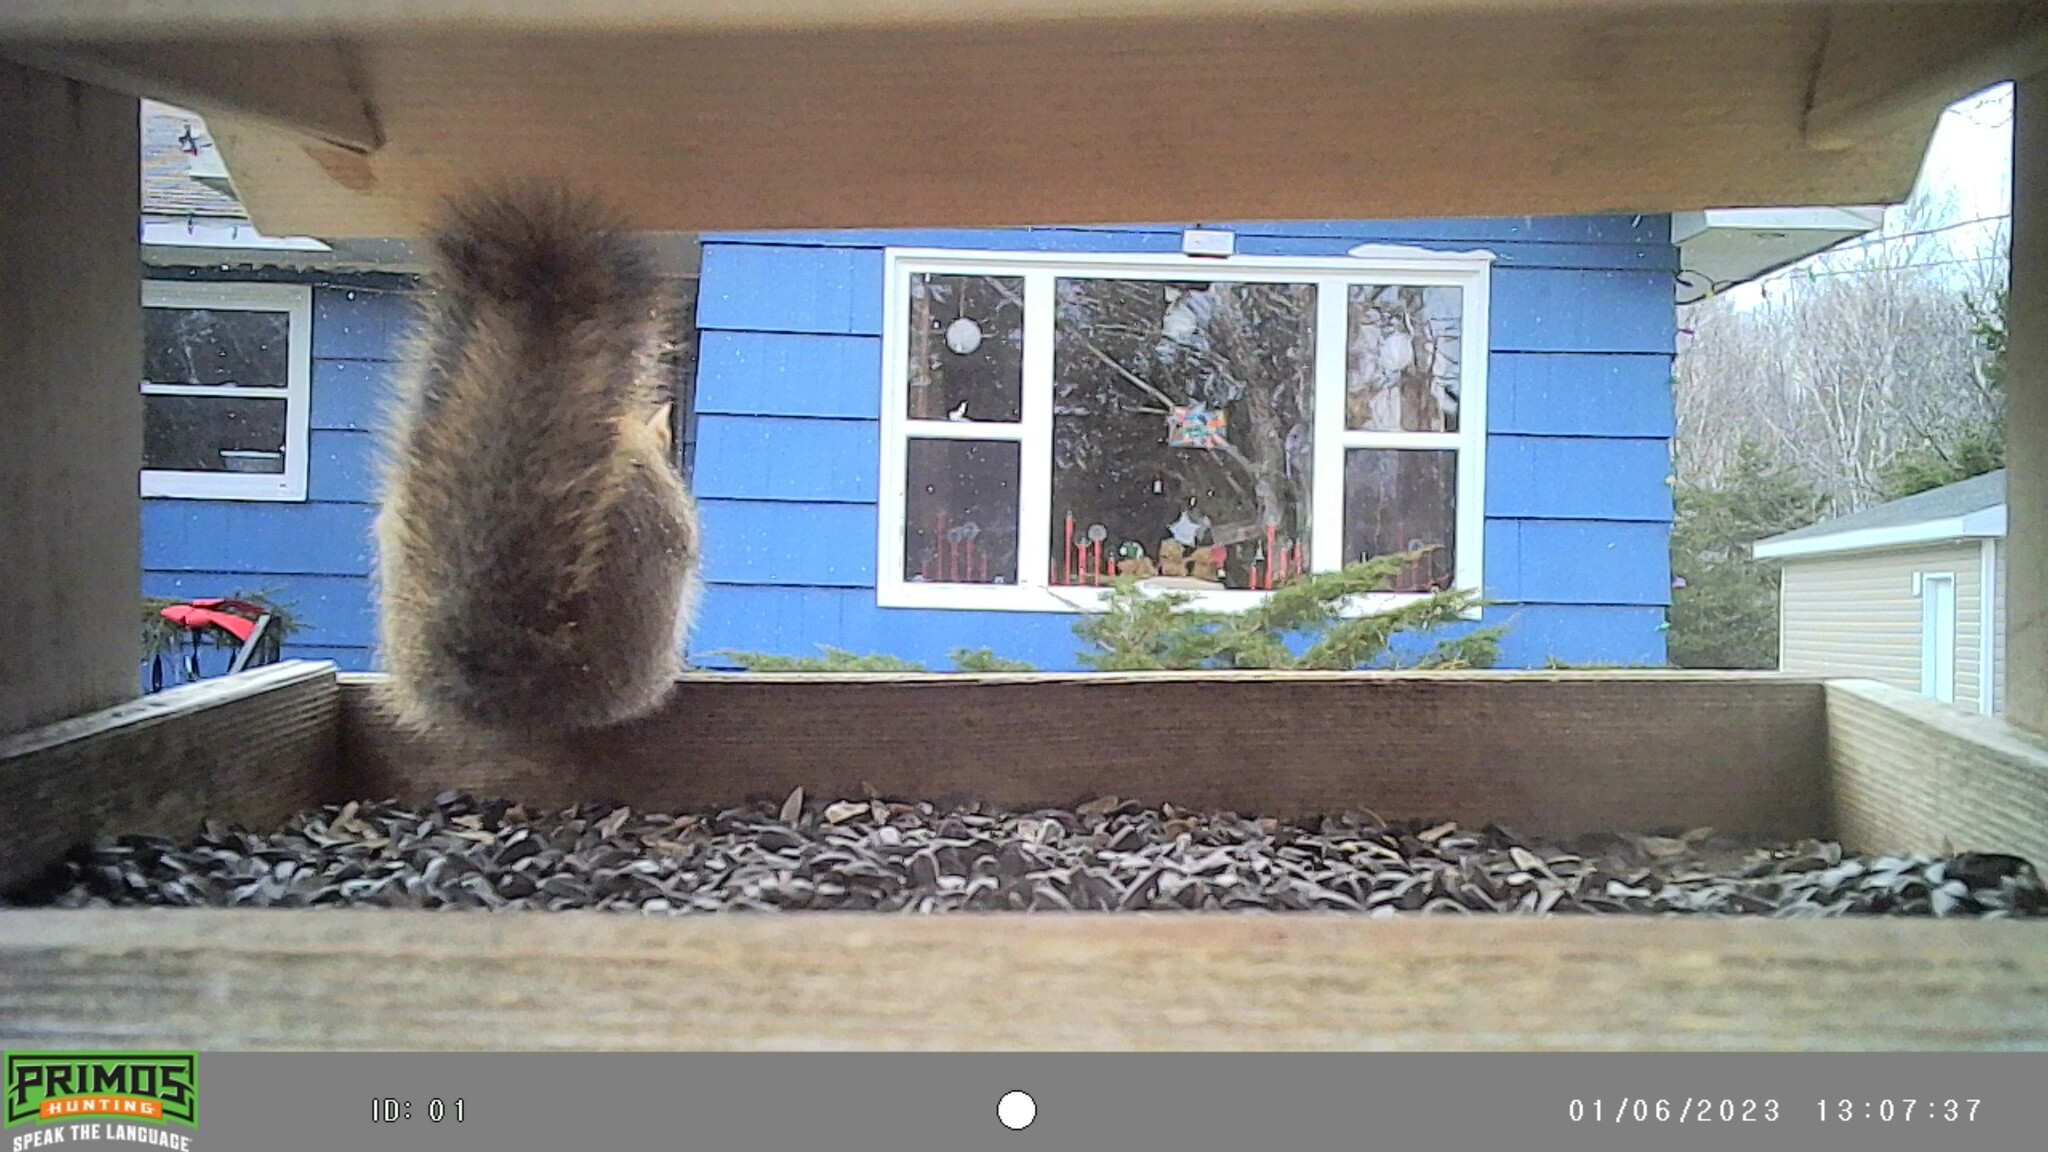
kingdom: Animalia
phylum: Chordata
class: Mammalia
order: Rodentia
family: Sciuridae
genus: Tamiasciurus
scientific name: Tamiasciurus hudsonicus
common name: Red squirrel
